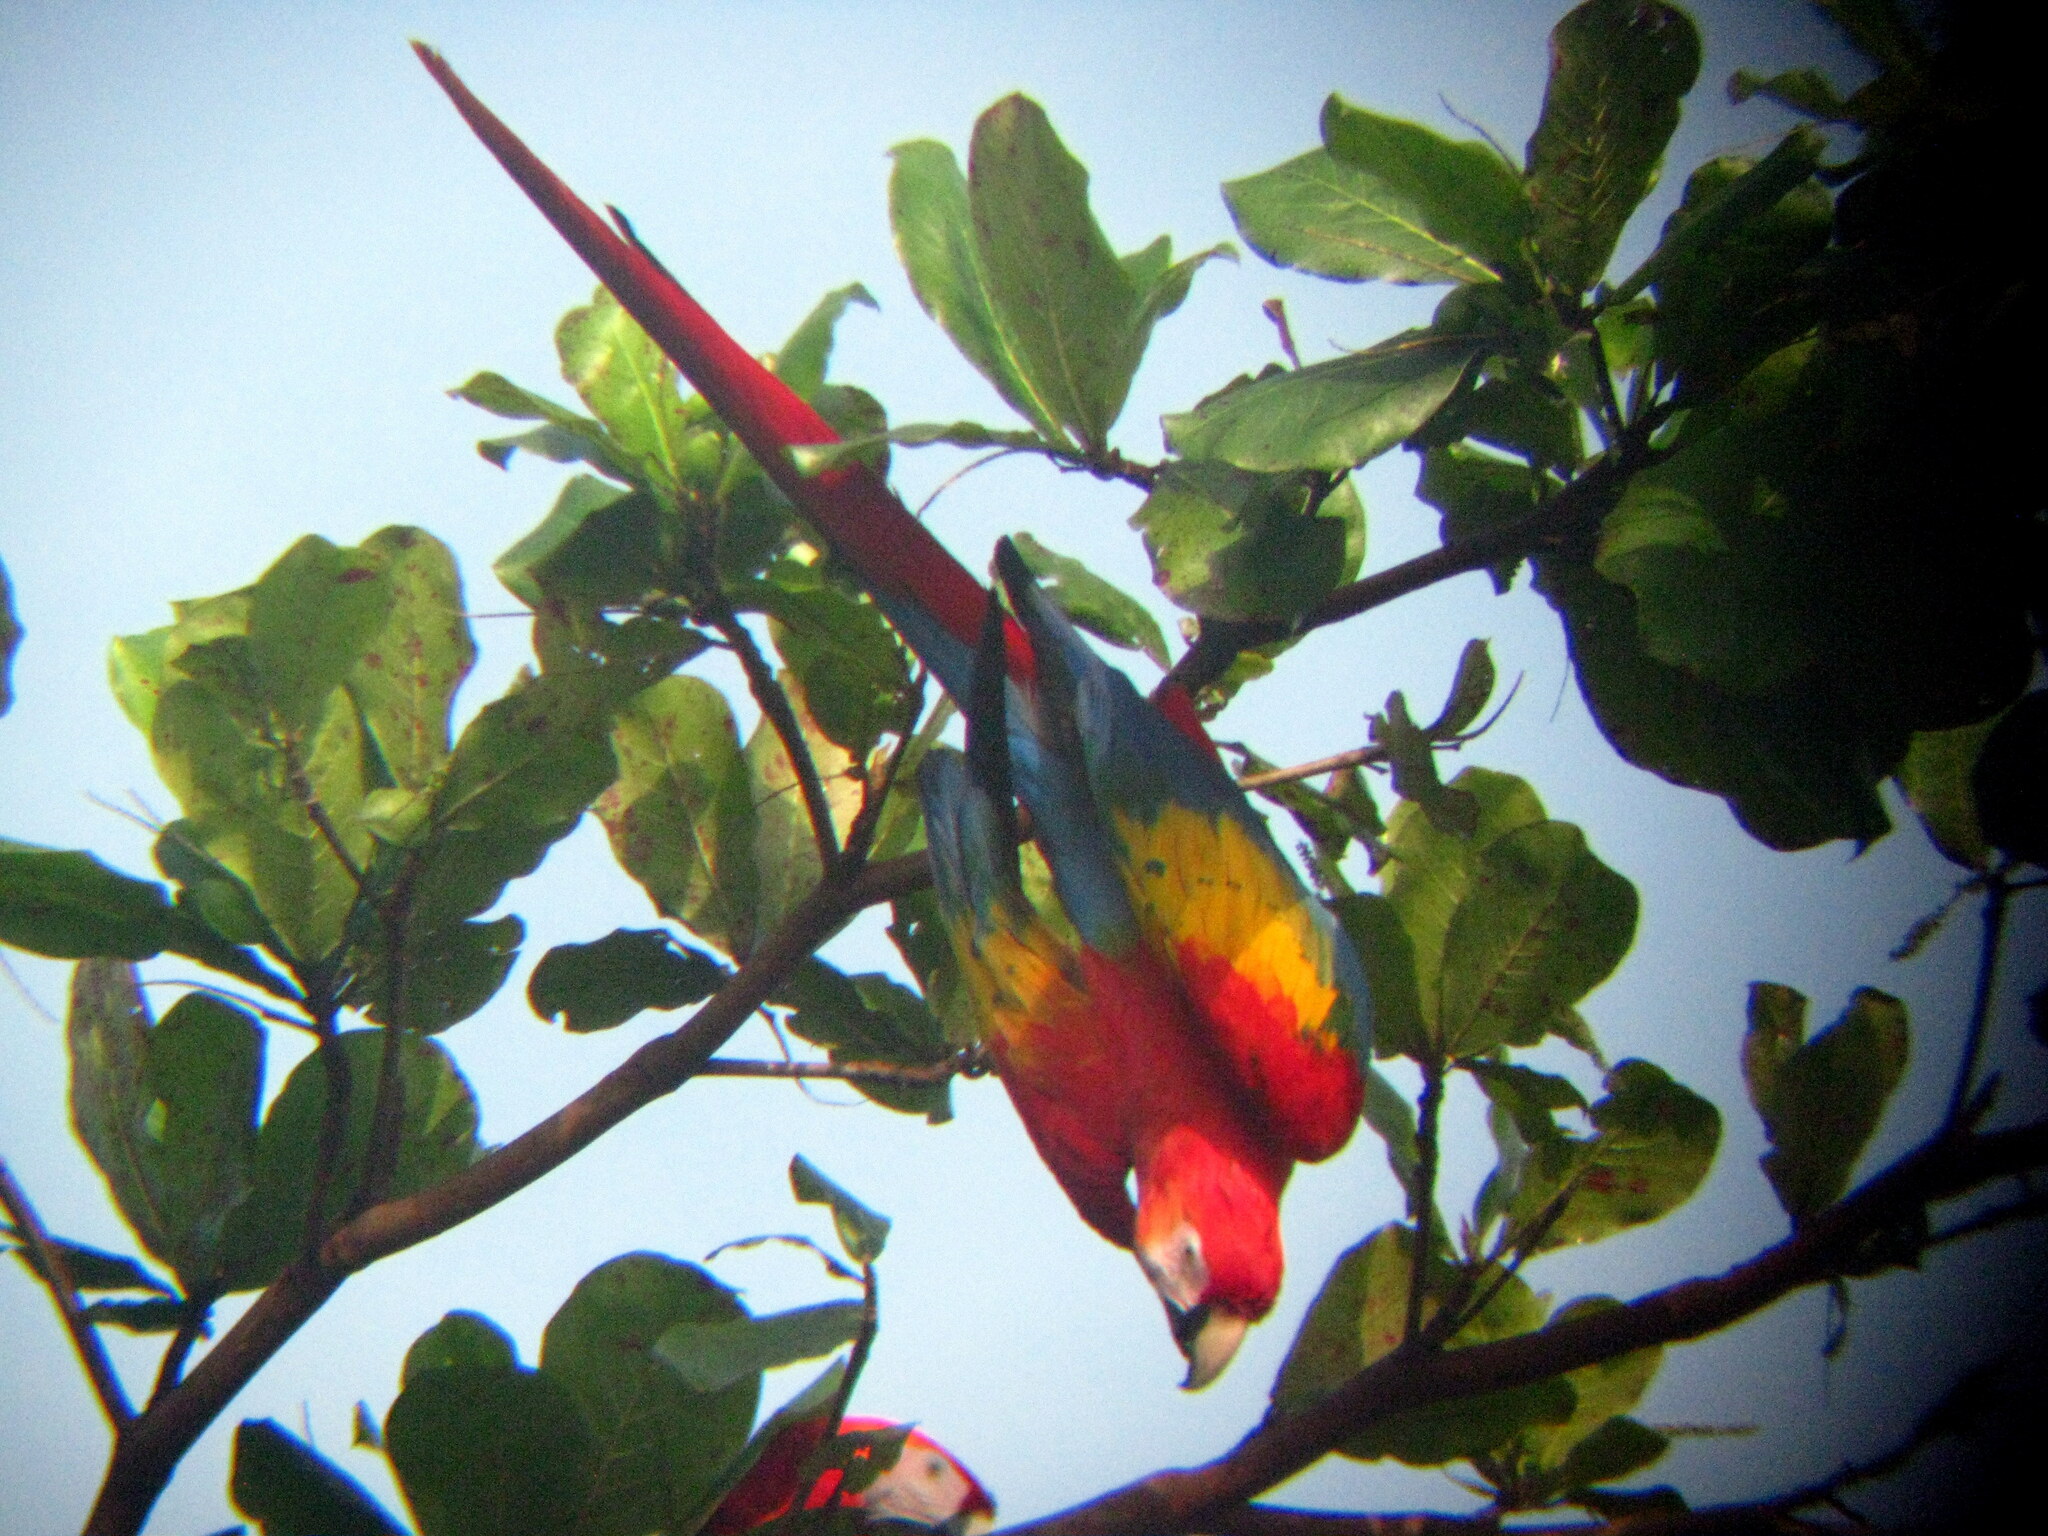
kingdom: Animalia
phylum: Chordata
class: Aves
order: Psittaciformes
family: Psittacidae
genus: Ara
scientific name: Ara macao
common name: Scarlet macaw
